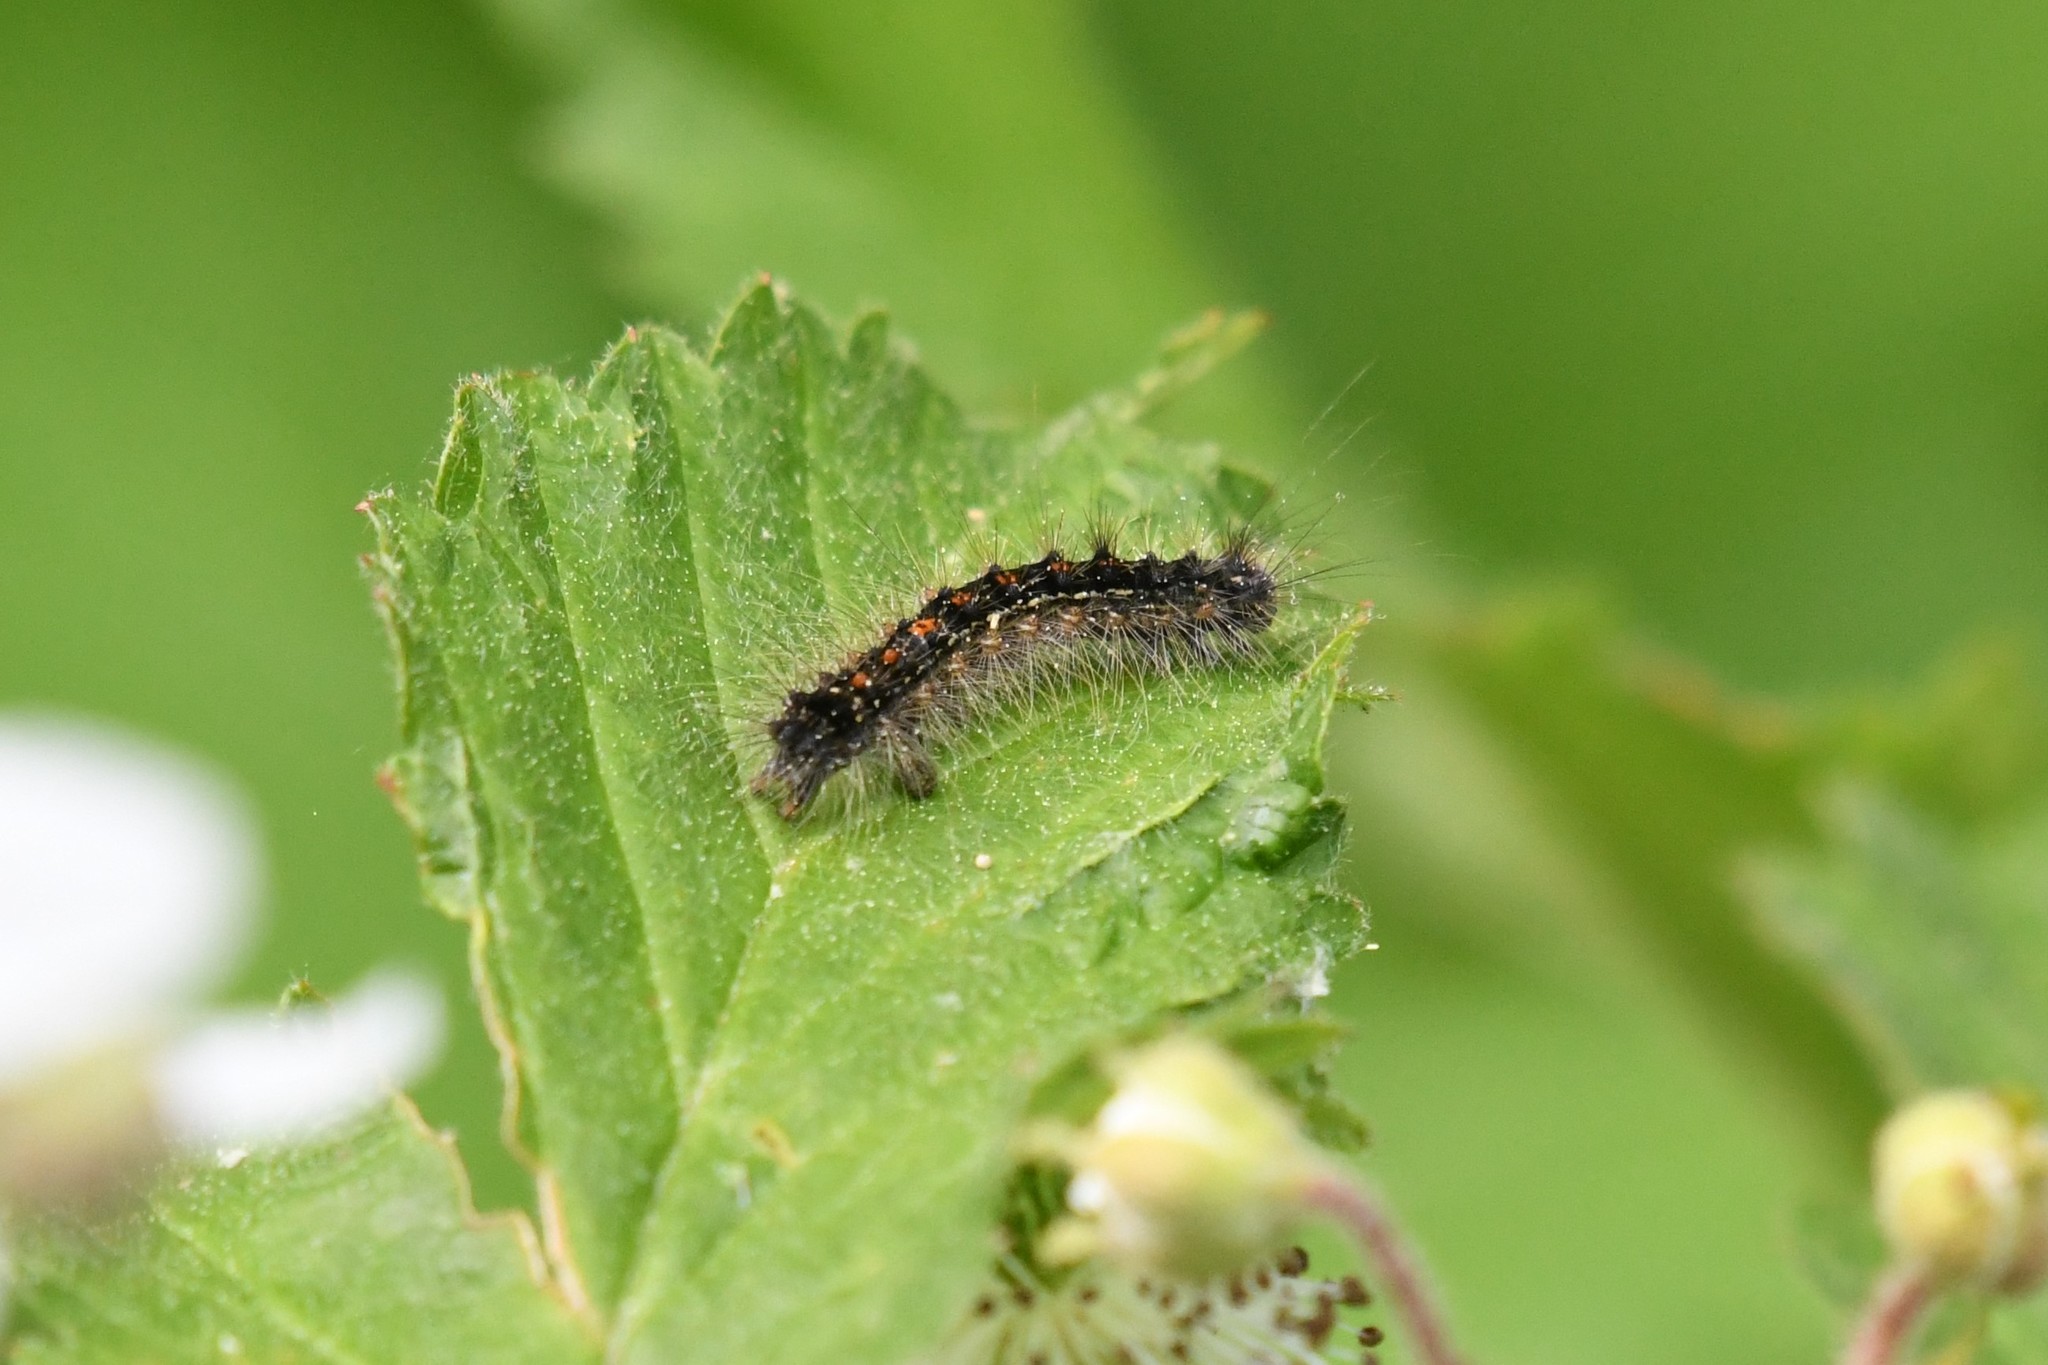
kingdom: Animalia
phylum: Arthropoda
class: Insecta
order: Lepidoptera
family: Erebidae
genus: Lymantria
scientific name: Lymantria dispar
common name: Gypsy moth
